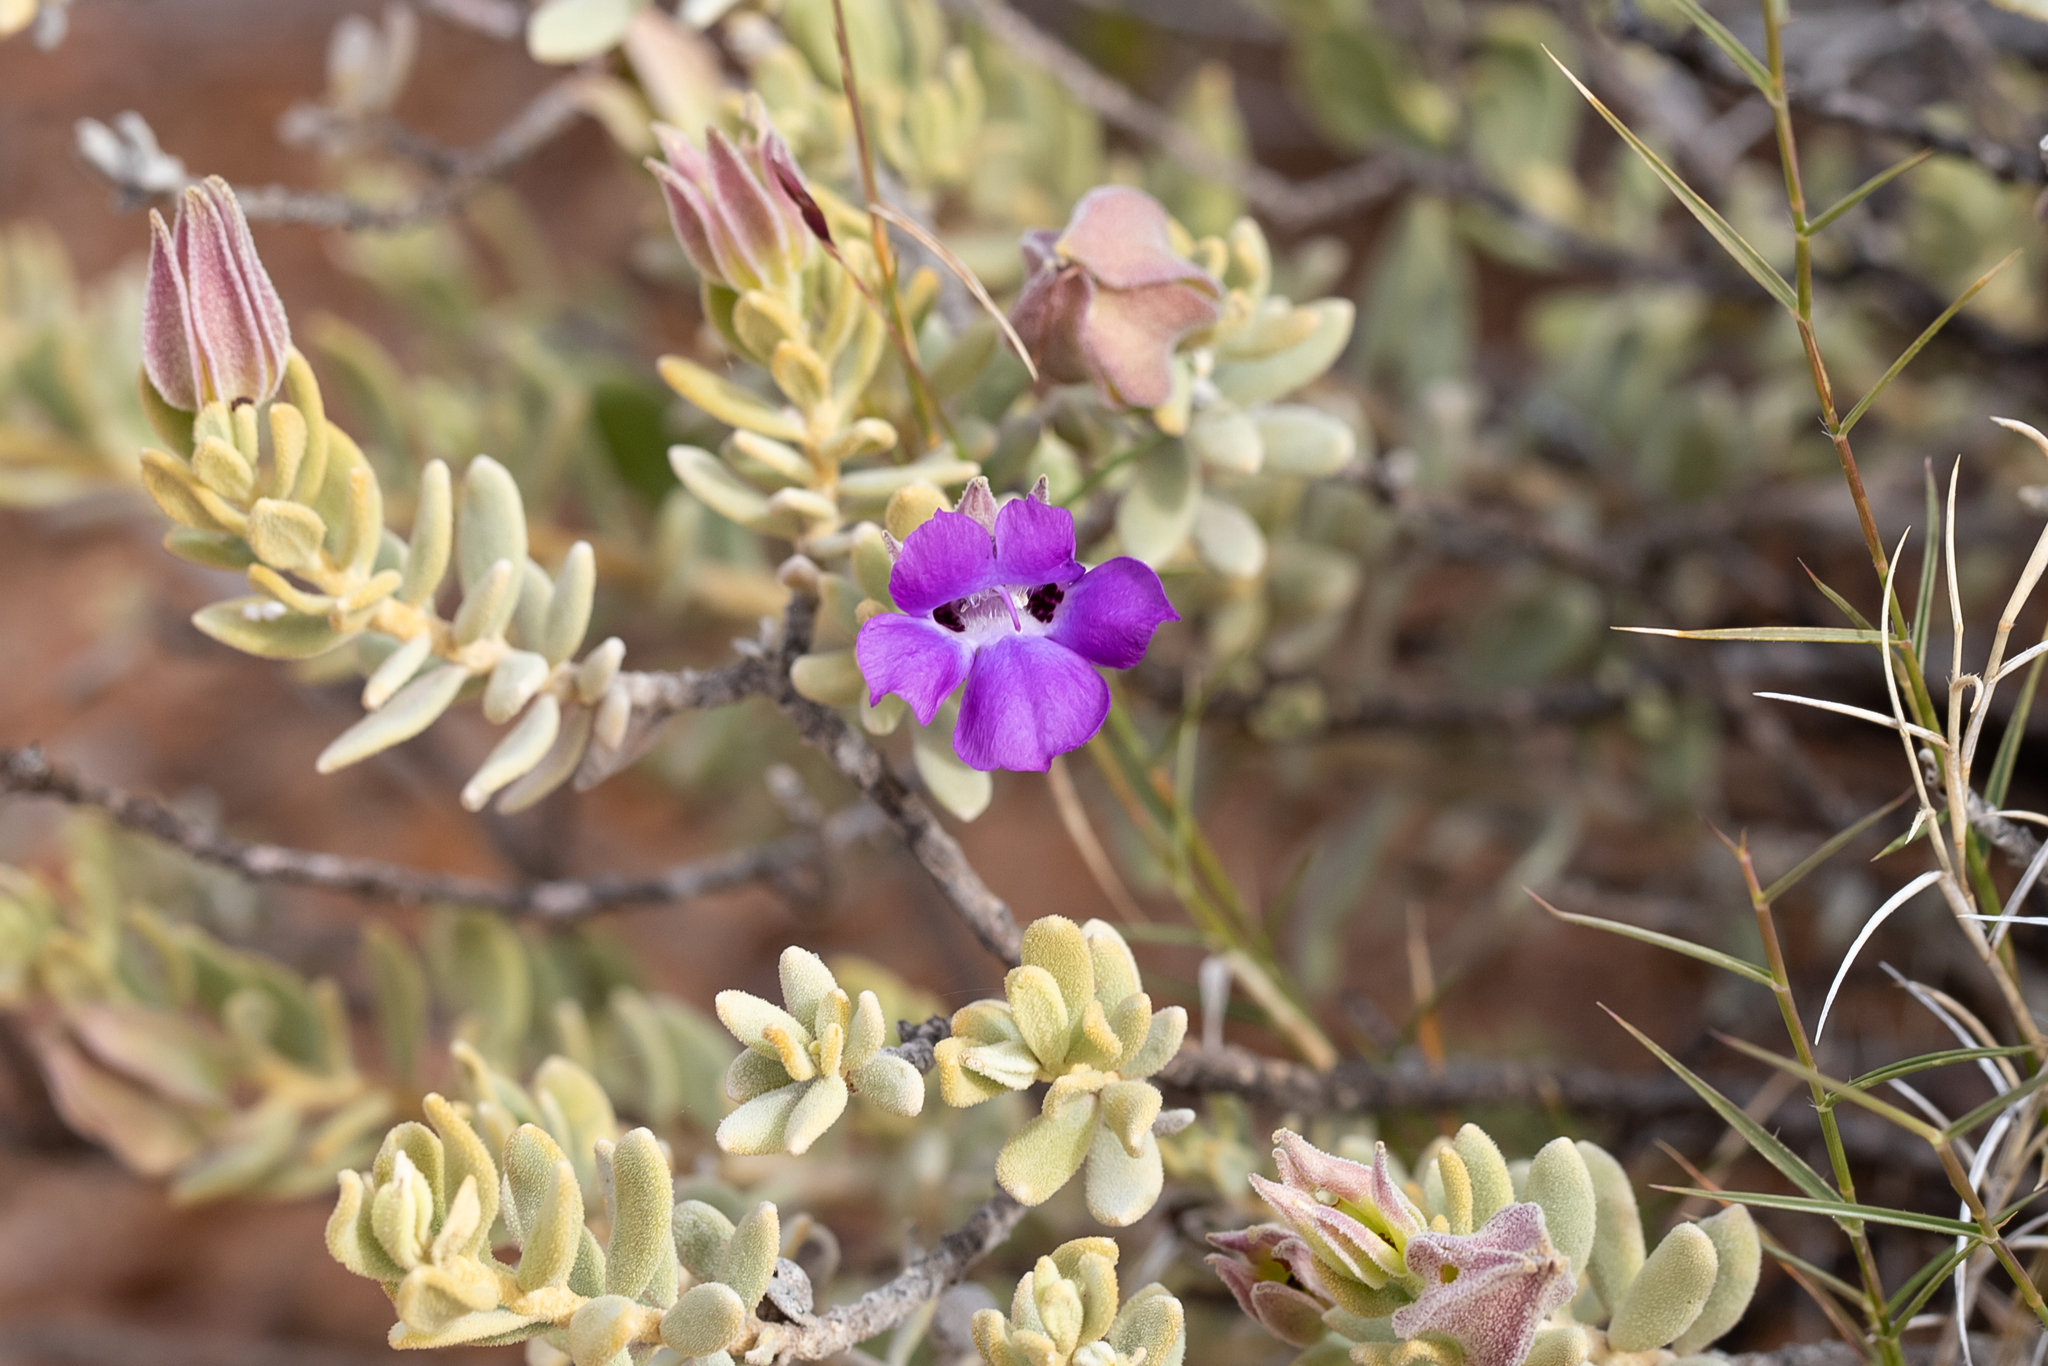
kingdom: Plantae
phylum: Tracheophyta
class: Magnoliopsida
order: Lamiales
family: Scrophulariaceae
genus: Eremophila
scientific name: Eremophila cordatisepala
